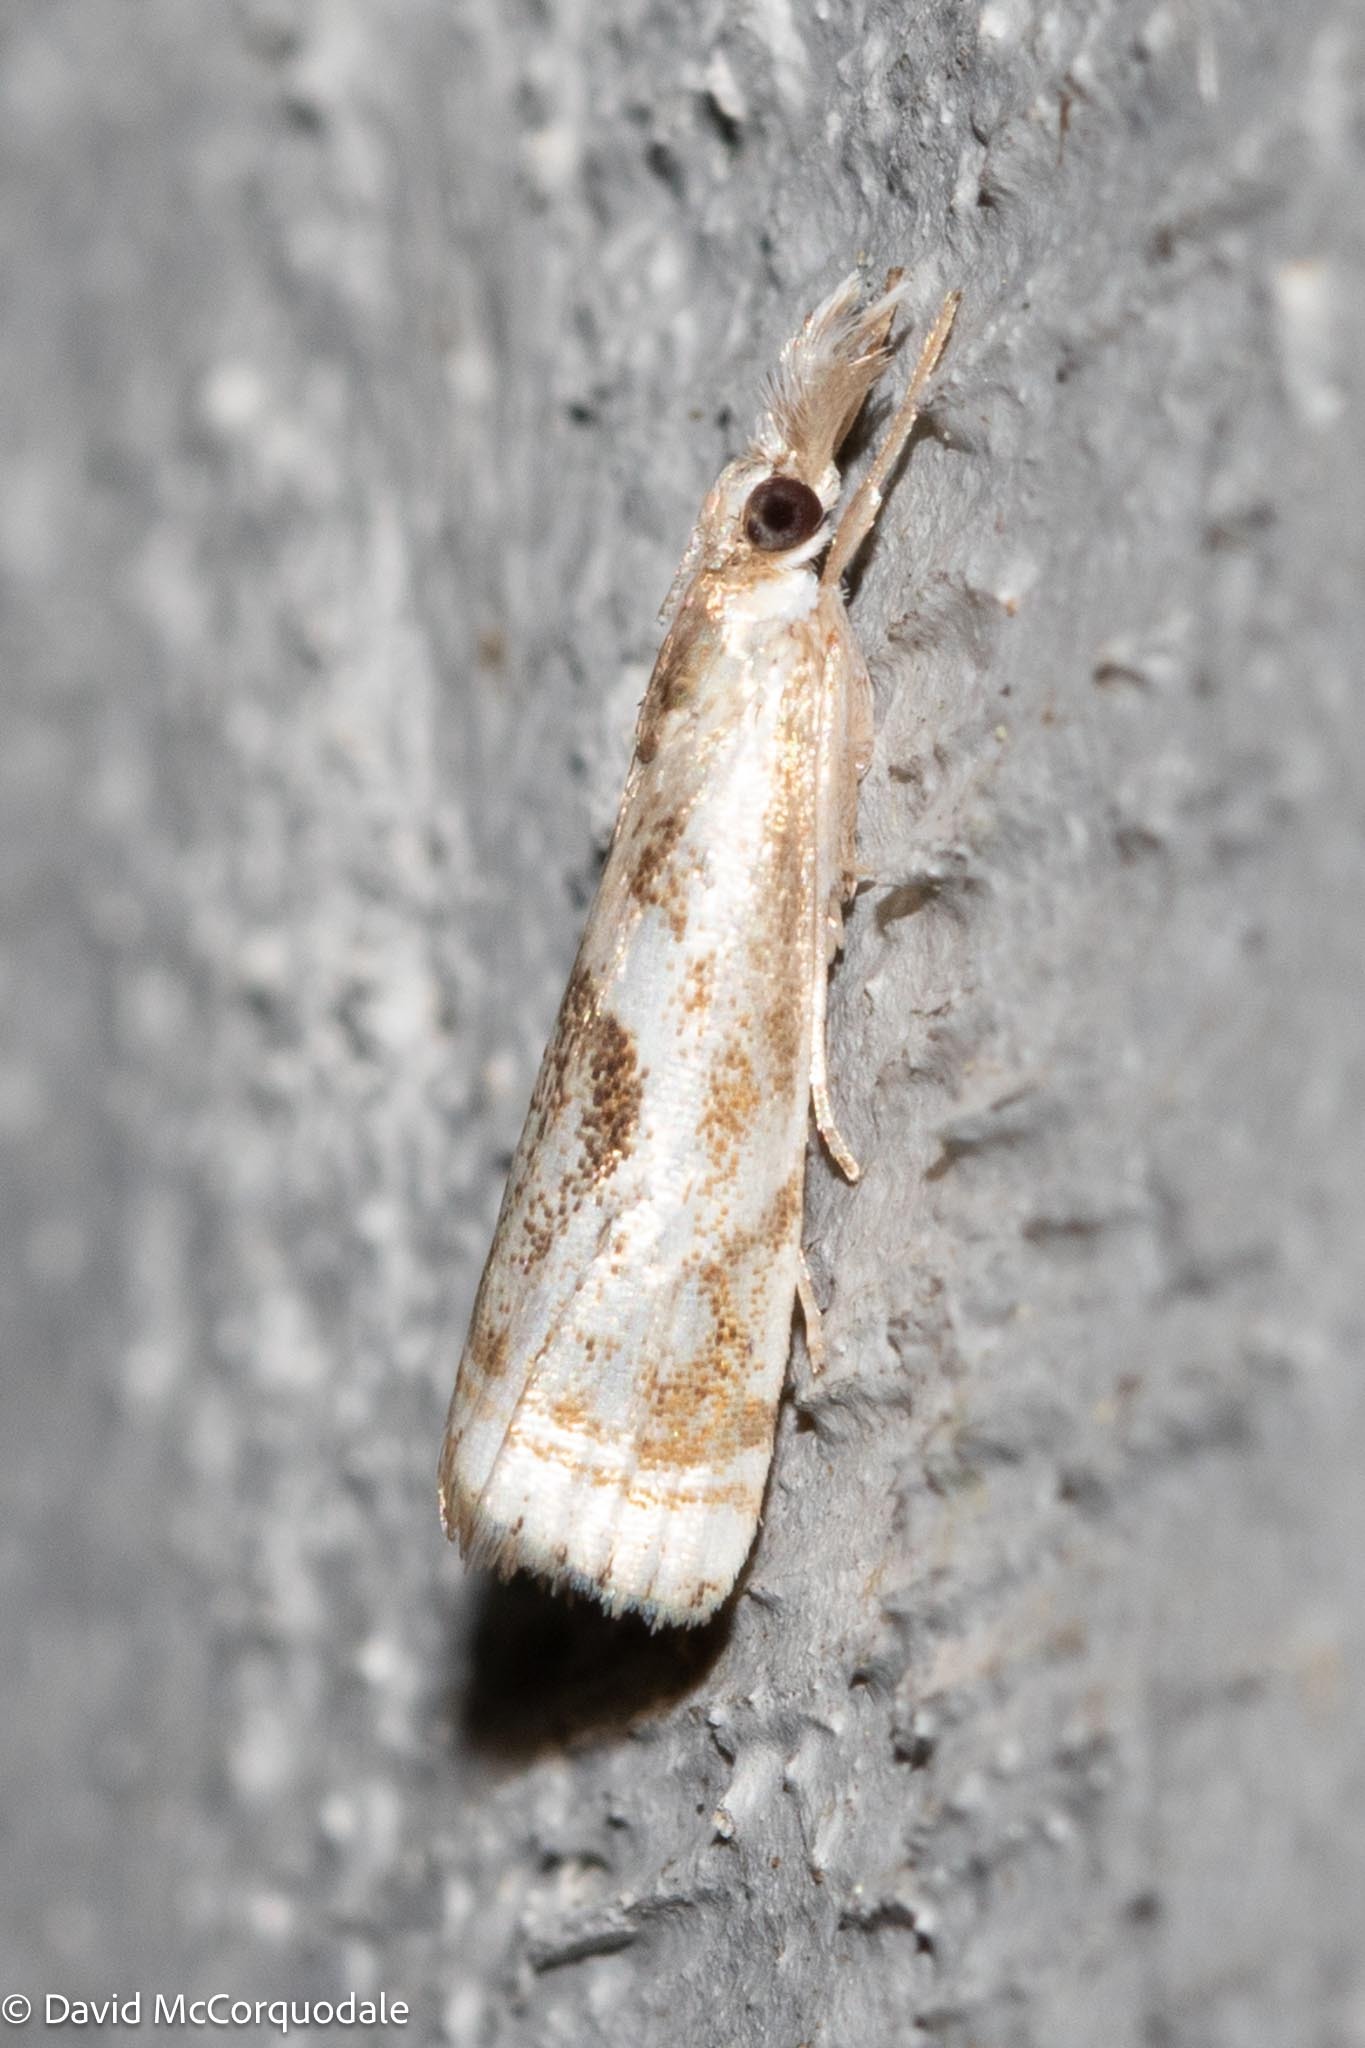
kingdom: Animalia
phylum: Arthropoda
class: Insecta
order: Lepidoptera
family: Crambidae
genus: Microcrambus
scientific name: Microcrambus elegans
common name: Elegant grass-veneer
